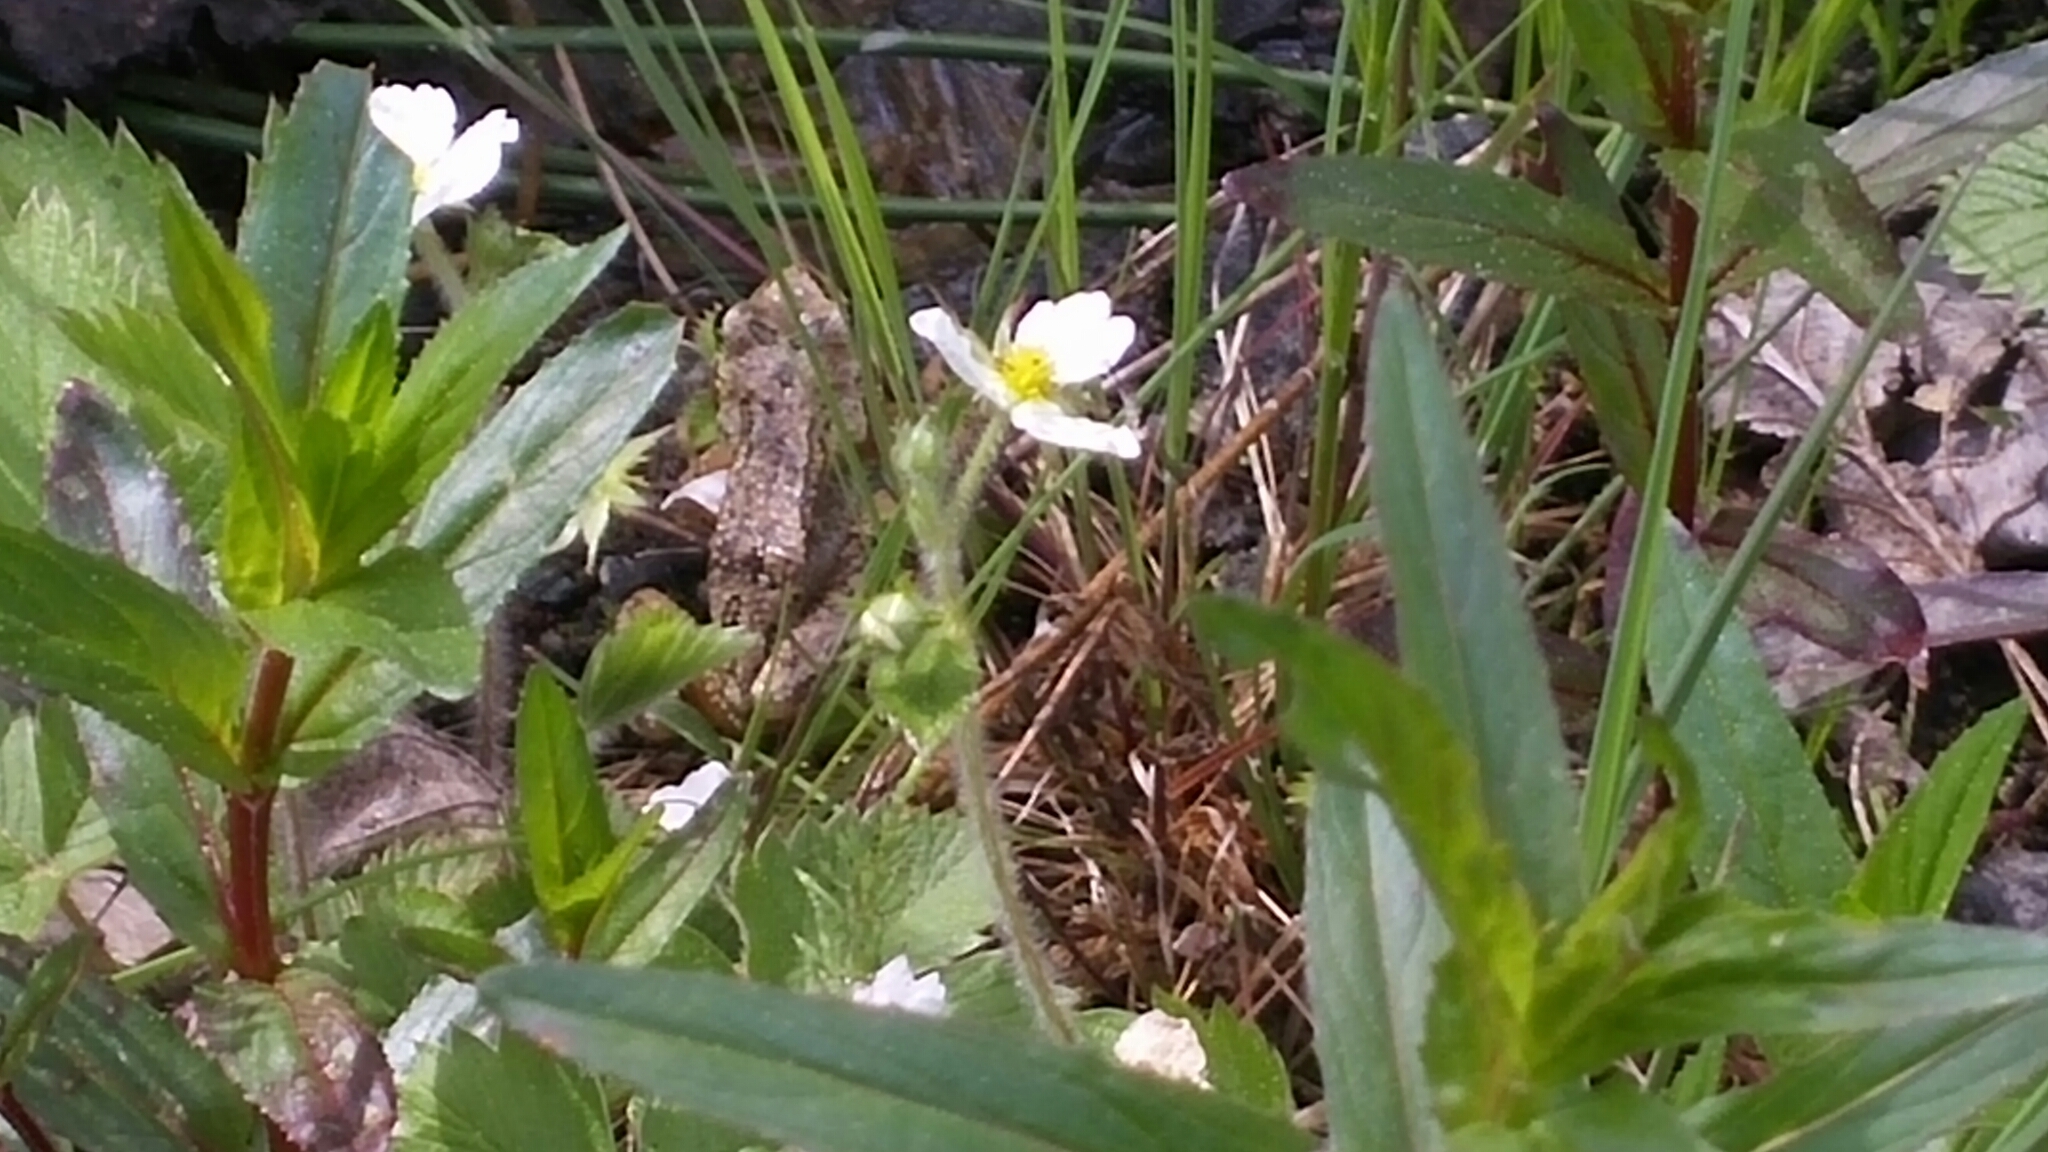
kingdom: Animalia
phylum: Chordata
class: Amphibia
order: Anura
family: Hylidae
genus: Pseudacris
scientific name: Pseudacris regilla
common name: Pacific chorus frog
